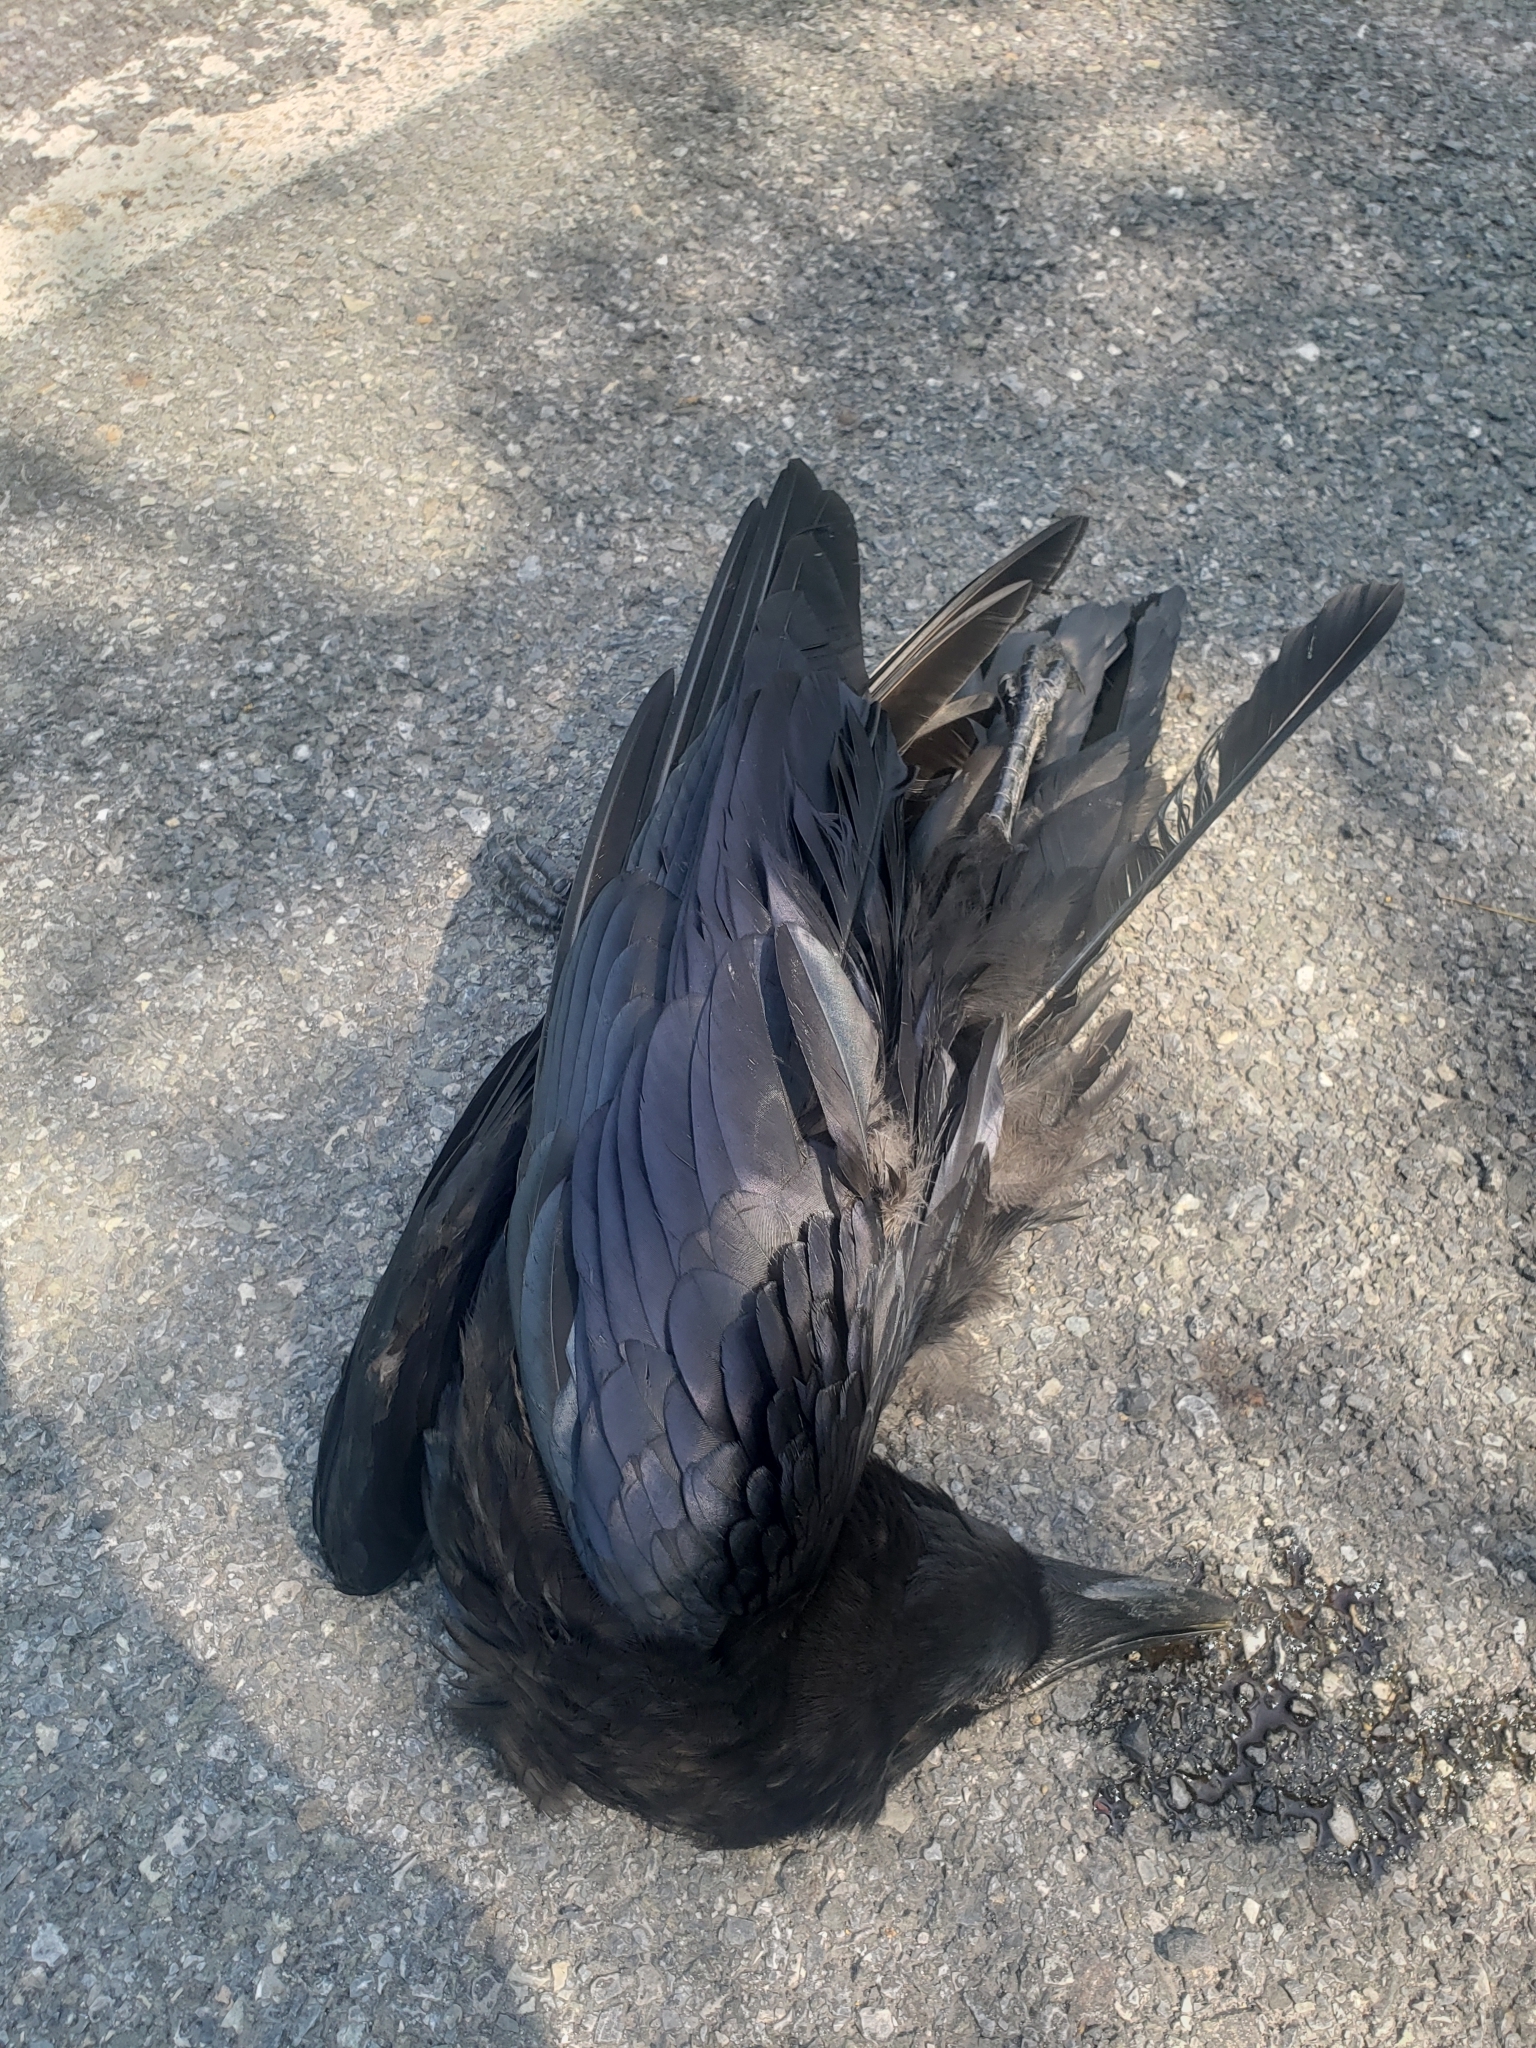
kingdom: Animalia
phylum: Chordata
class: Aves
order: Passeriformes
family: Corvidae
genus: Corvus
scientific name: Corvus corax
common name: Common raven
